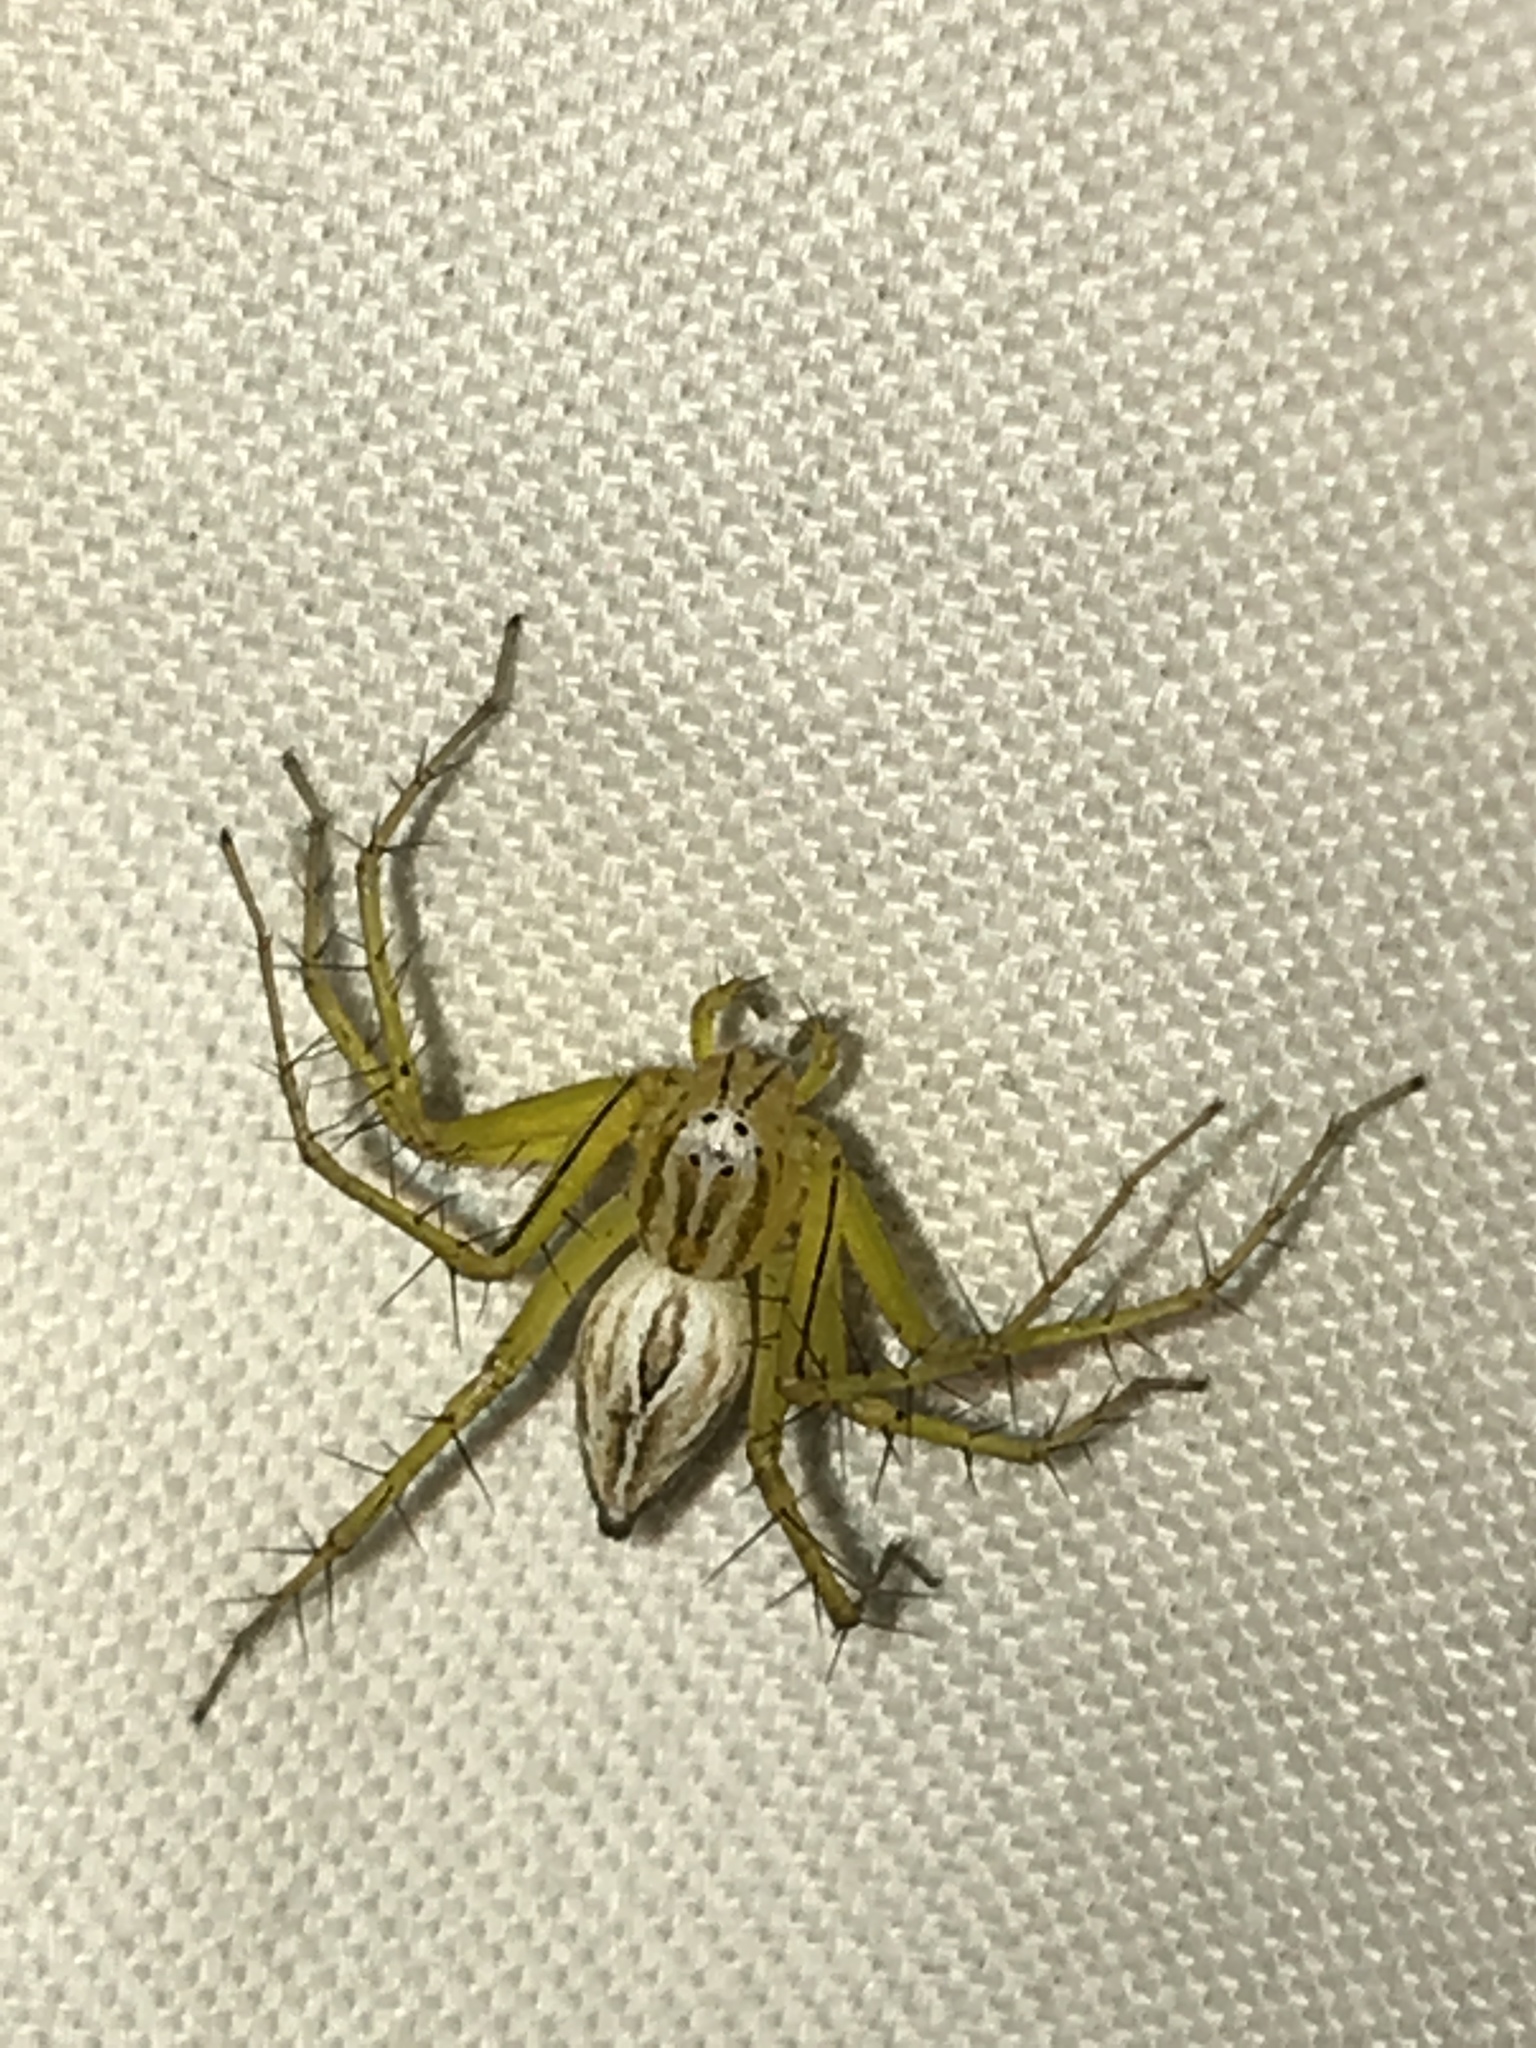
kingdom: Animalia
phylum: Arthropoda
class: Arachnida
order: Araneae
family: Oxyopidae
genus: Oxyopes
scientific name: Oxyopes salticus
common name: Lynx spiders
